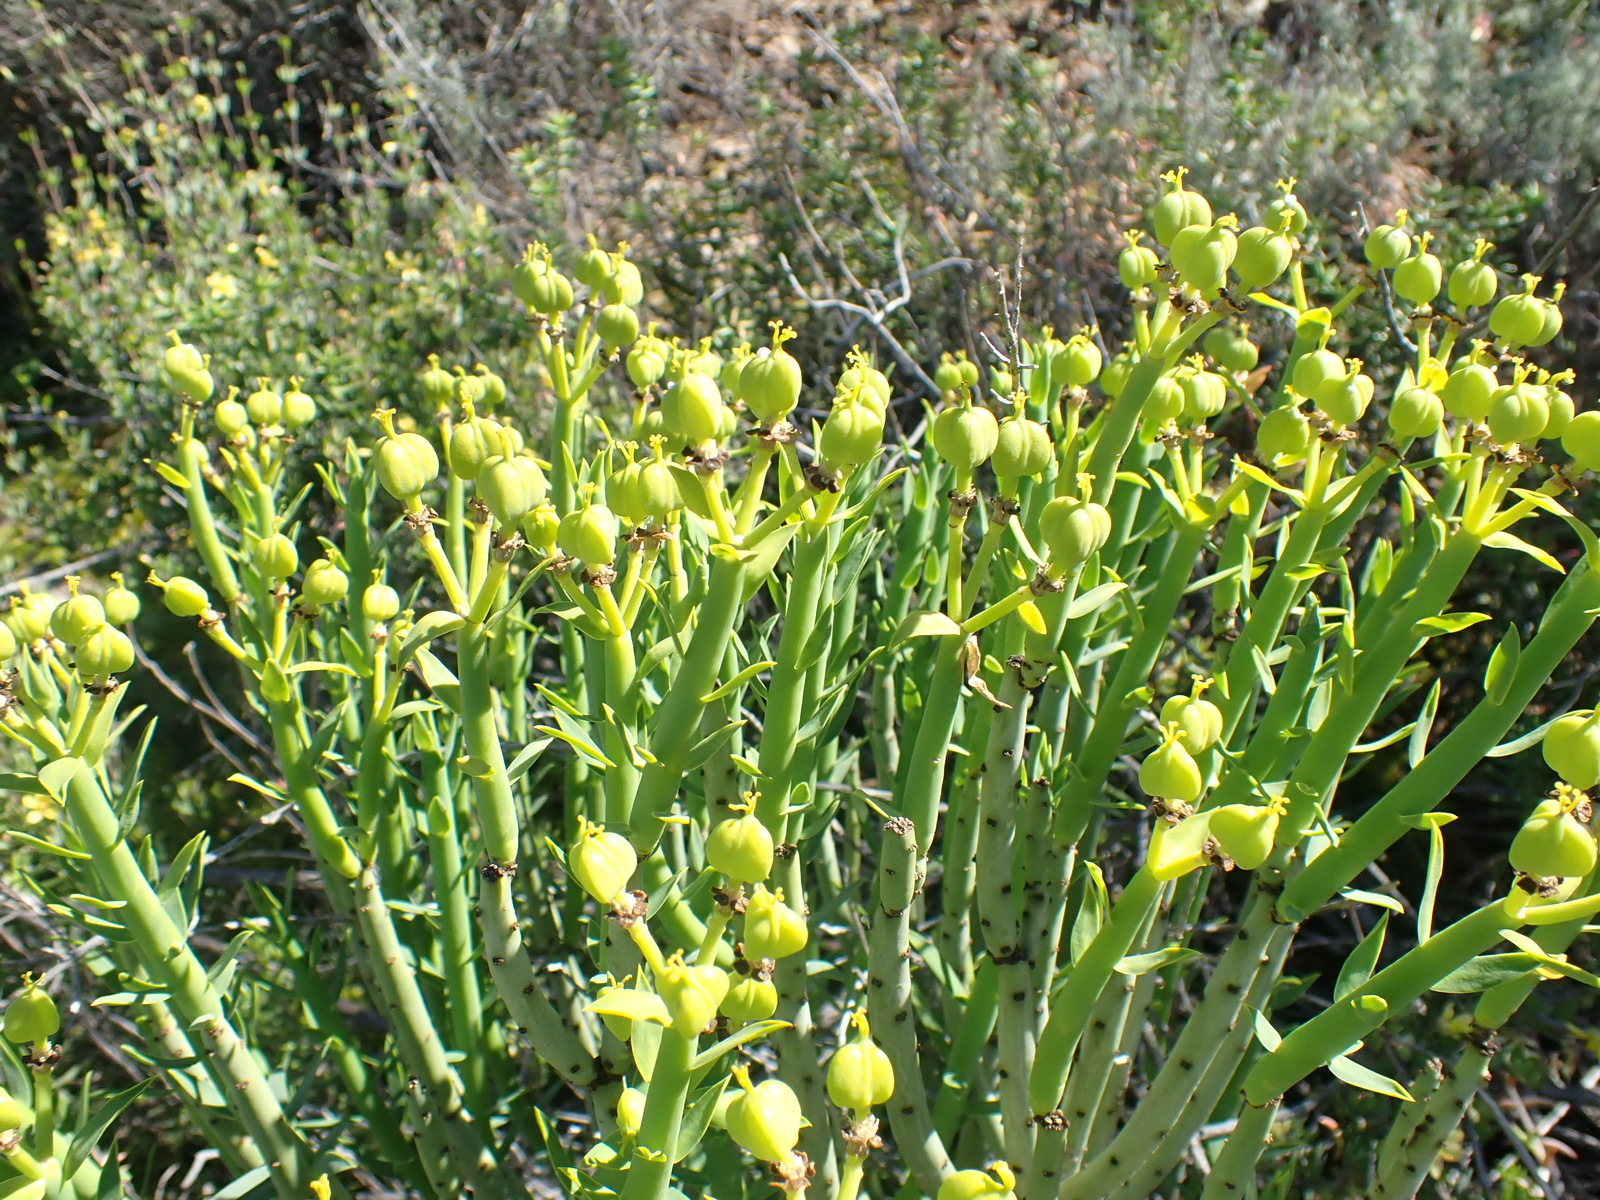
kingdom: Plantae
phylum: Tracheophyta
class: Magnoliopsida
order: Malpighiales
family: Euphorbiaceae
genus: Euphorbia
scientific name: Euphorbia mauritanica
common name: Jackal's-food
